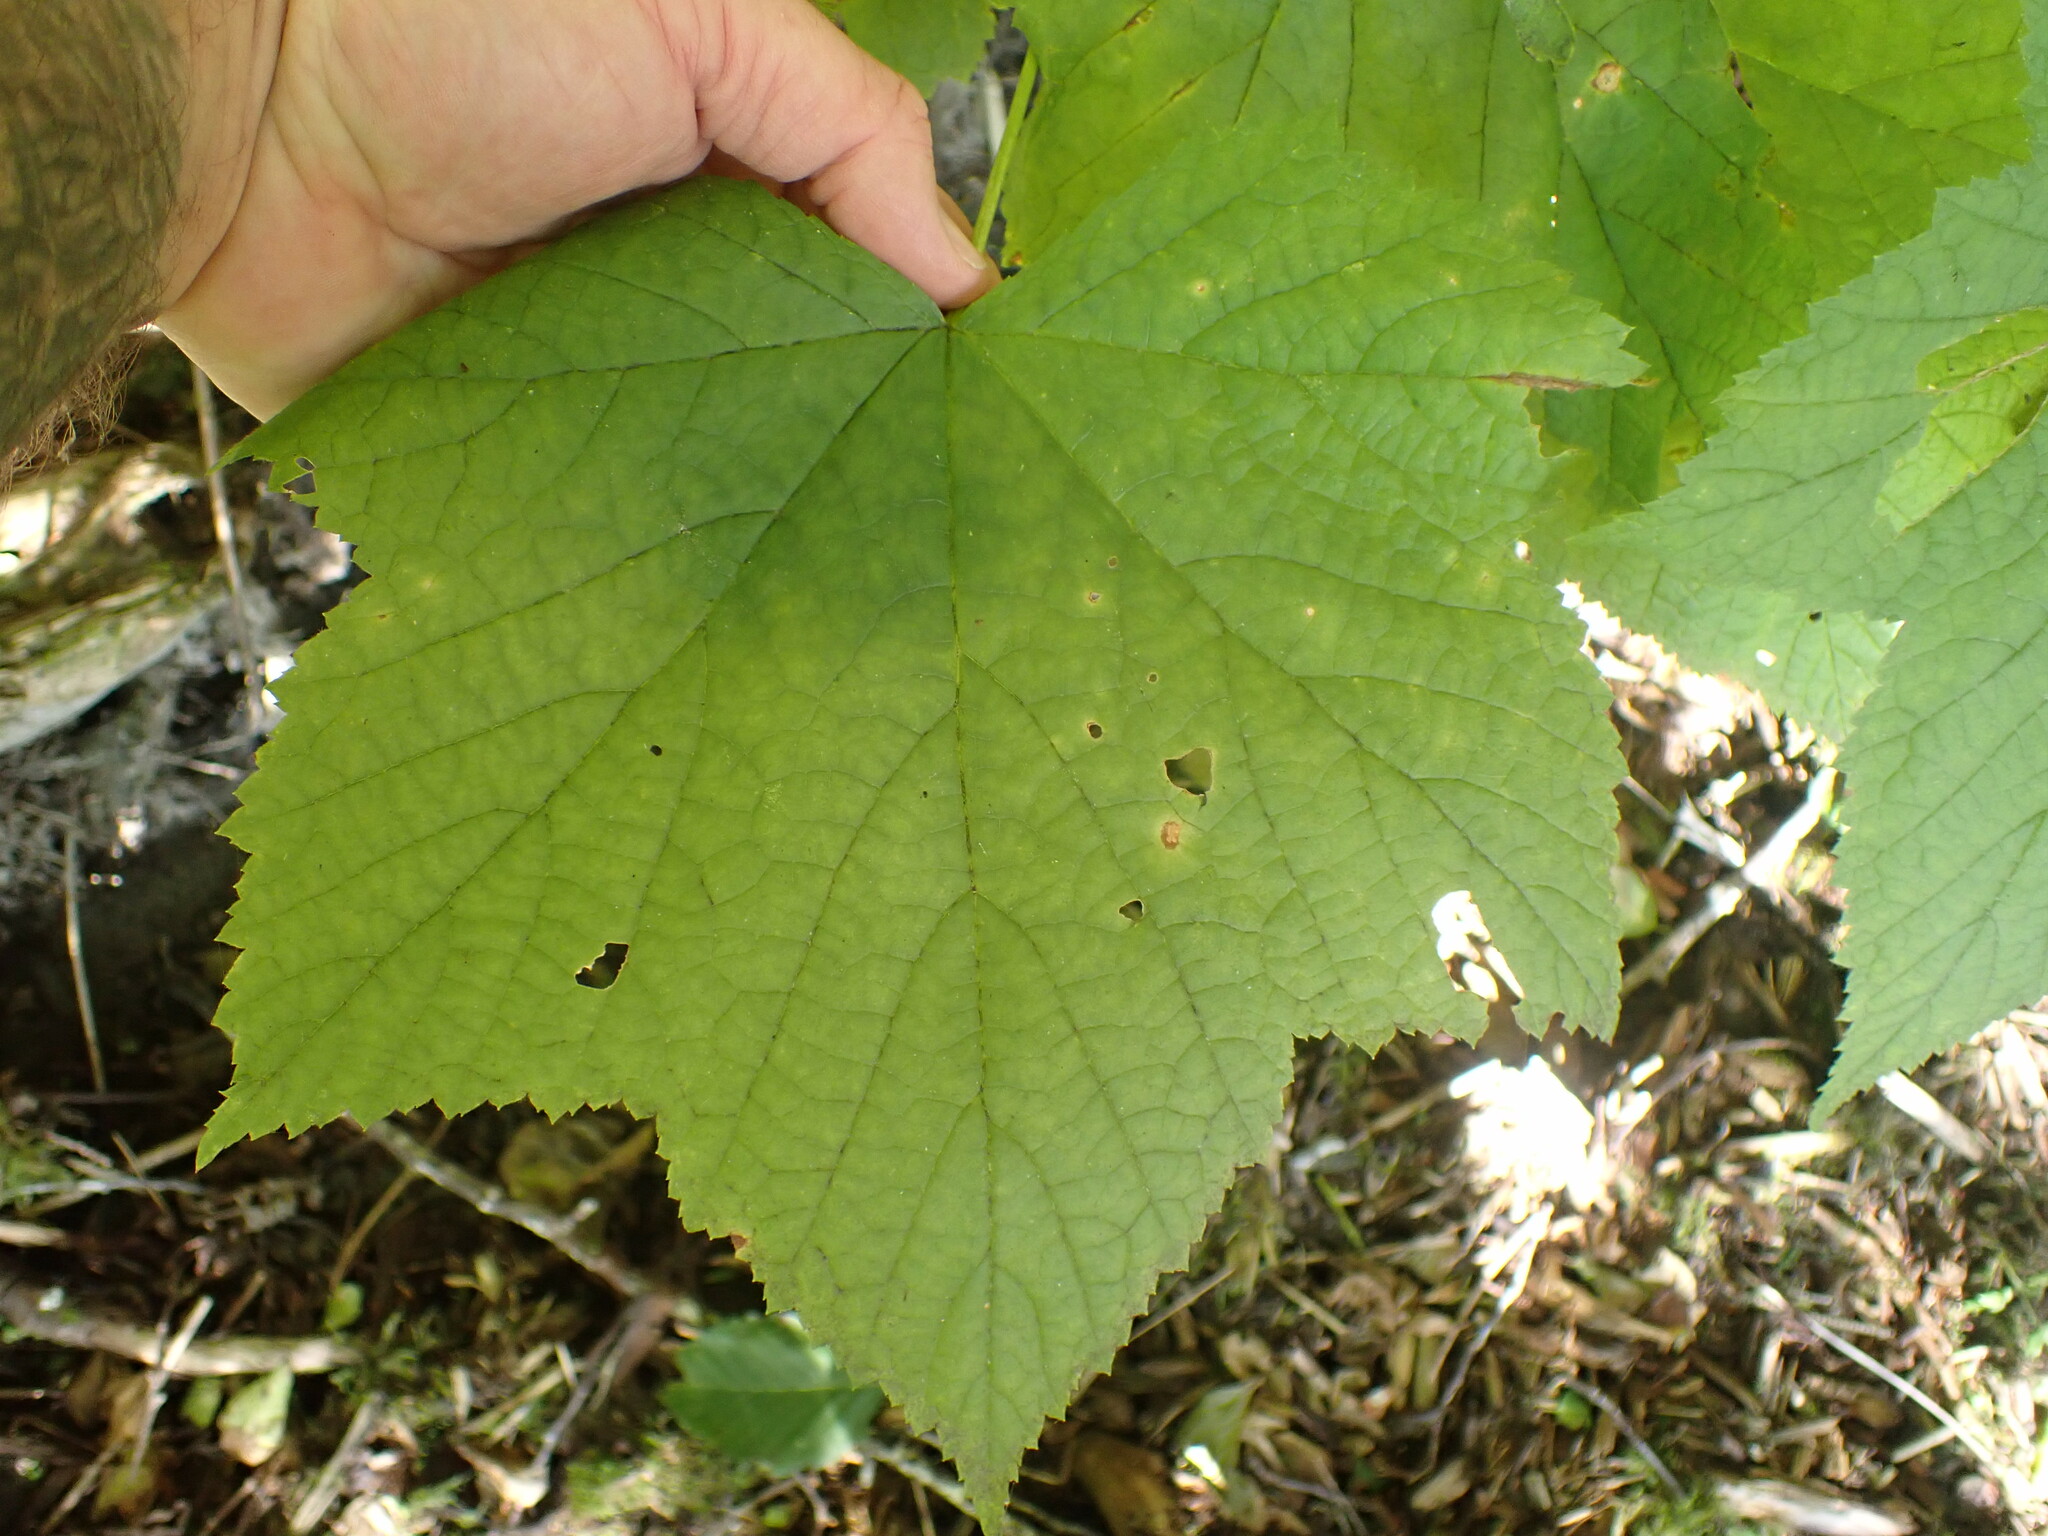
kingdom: Plantae
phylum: Tracheophyta
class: Magnoliopsida
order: Rosales
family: Rosaceae
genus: Rubus
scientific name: Rubus parviflorus
